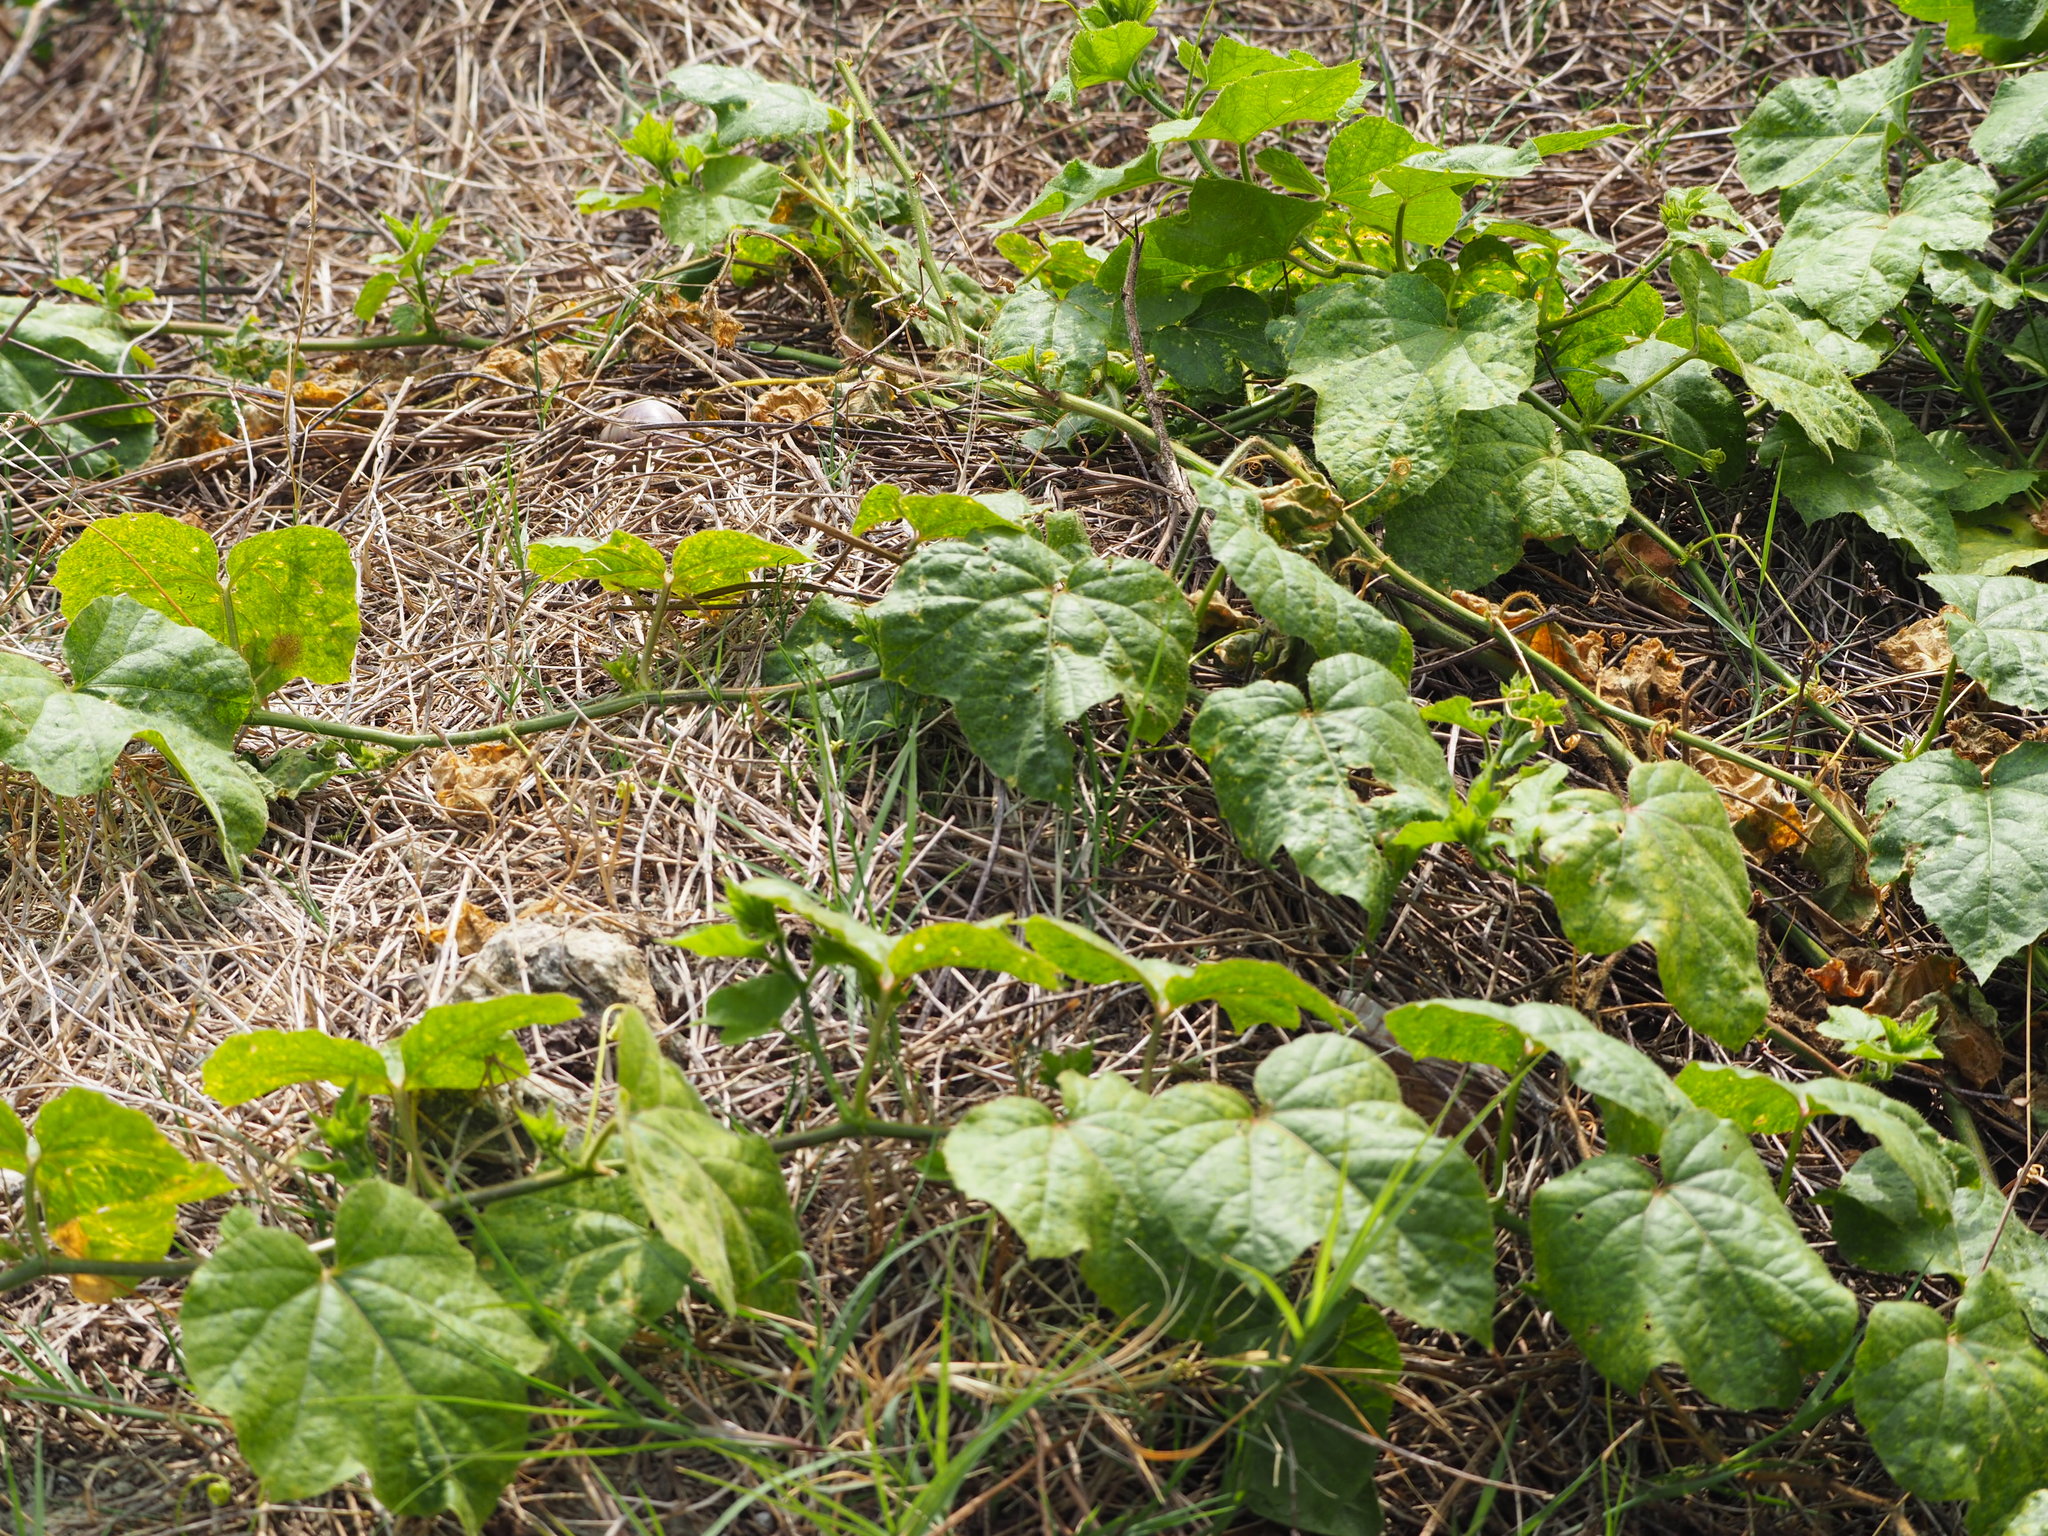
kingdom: Plantae
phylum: Tracheophyta
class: Magnoliopsida
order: Malpighiales
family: Passifloraceae
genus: Passiflora
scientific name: Passiflora vesicaria
